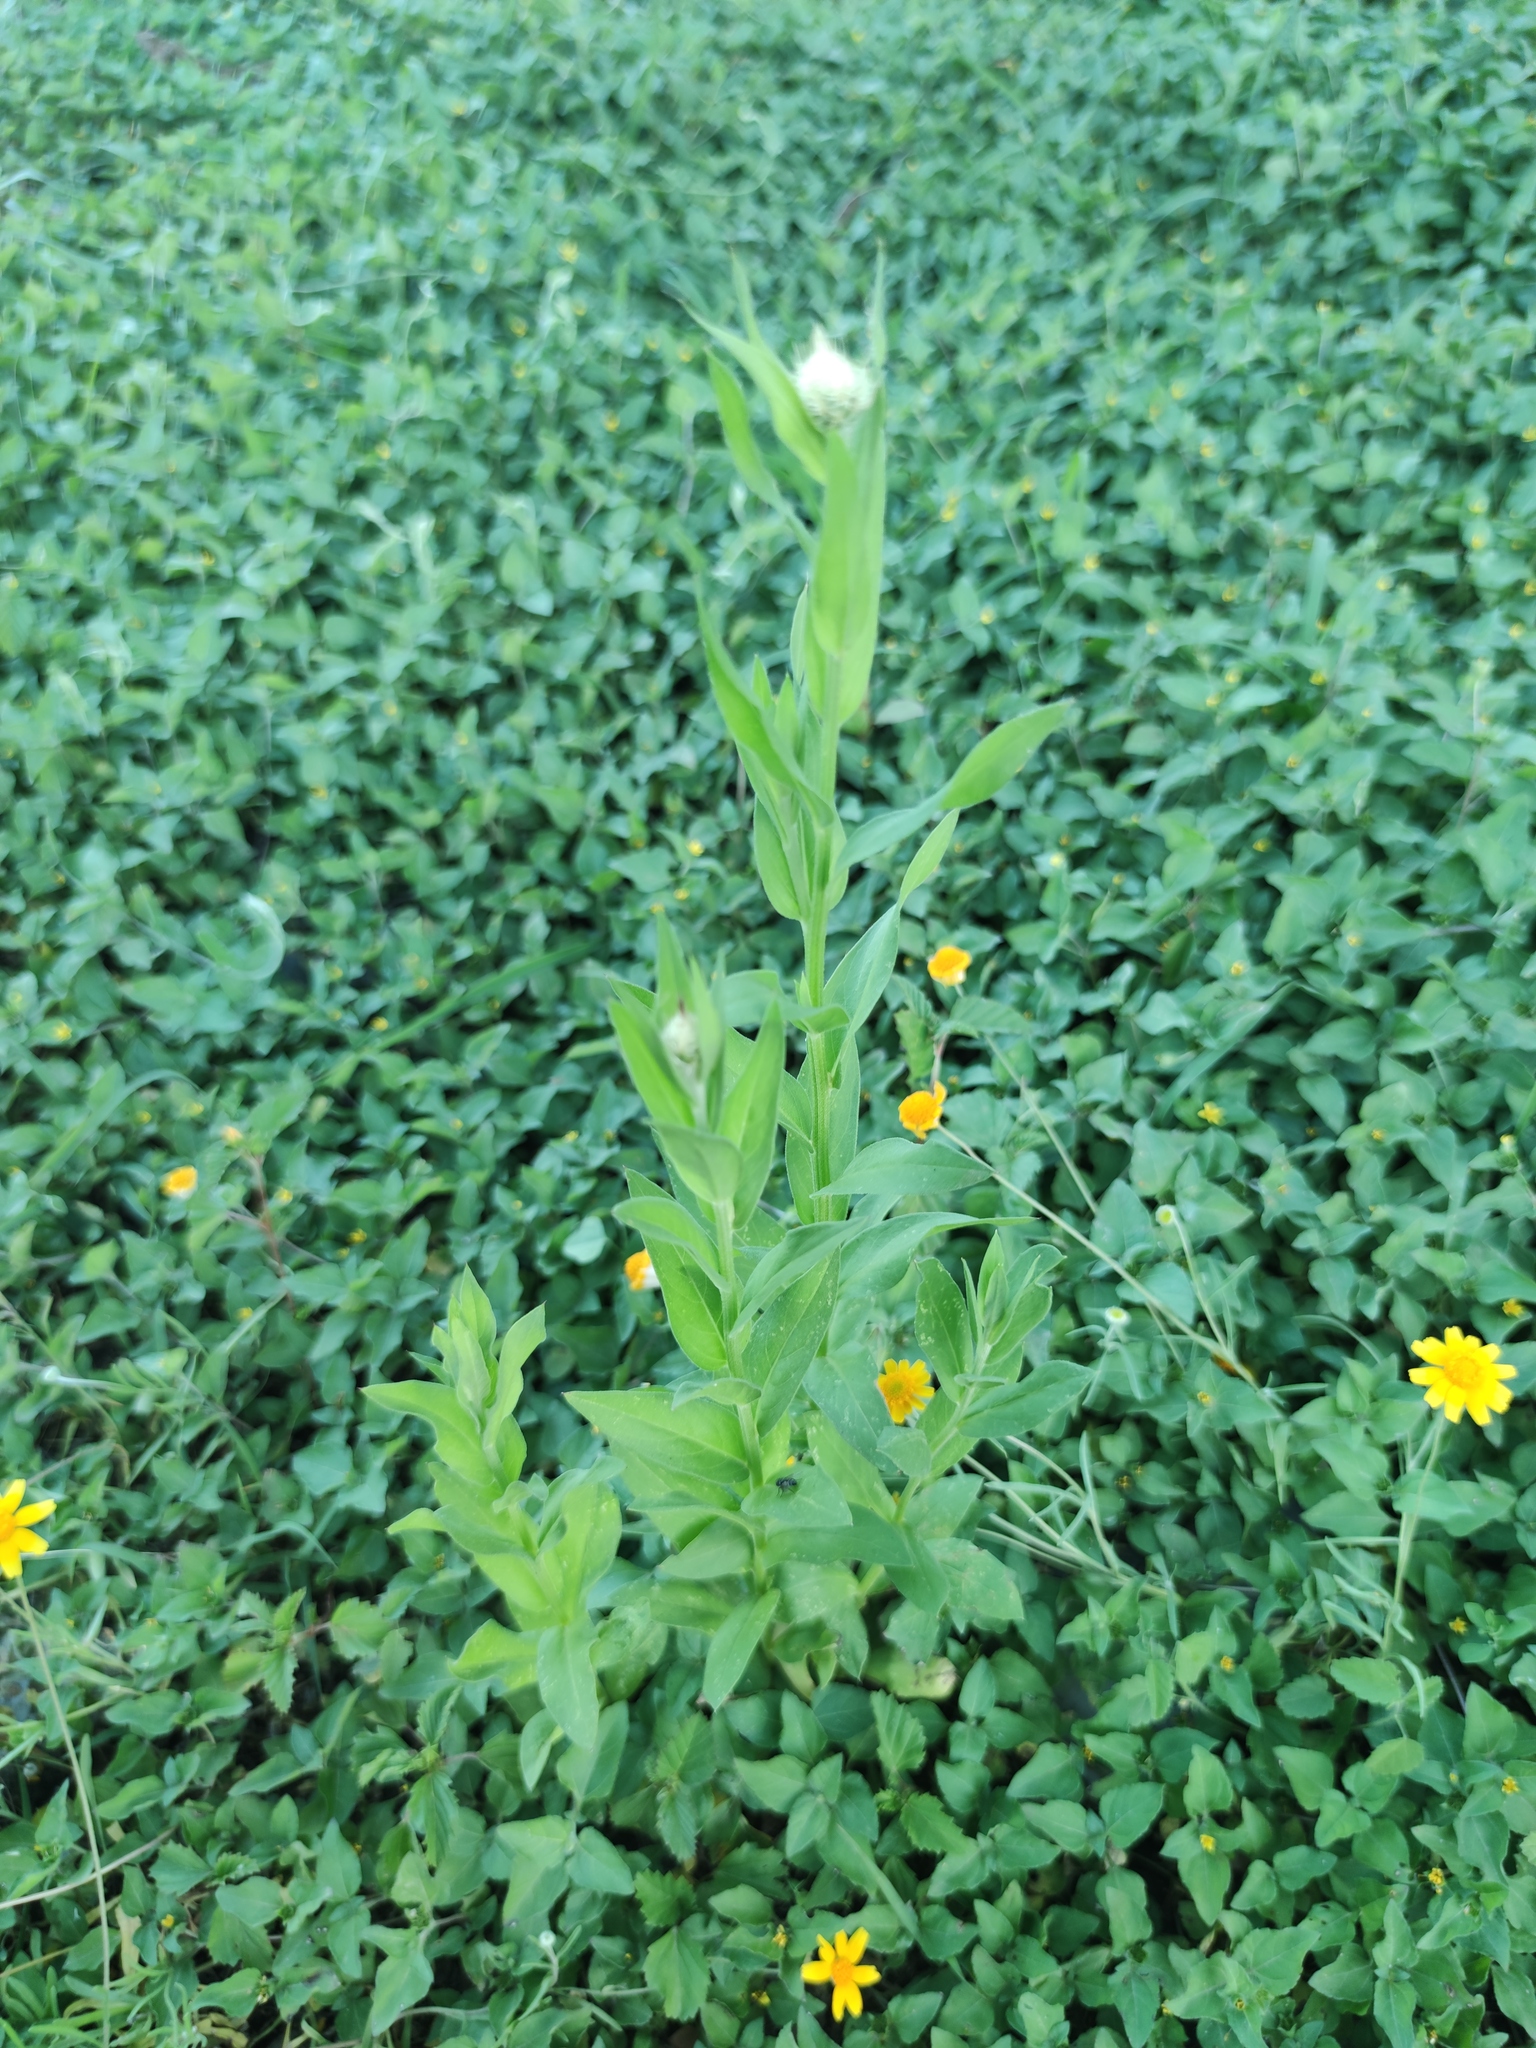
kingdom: Plantae
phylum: Tracheophyta
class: Magnoliopsida
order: Asterales
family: Asteraceae
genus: Plectocephalus
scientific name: Plectocephalus americanus
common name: American basket-flower
